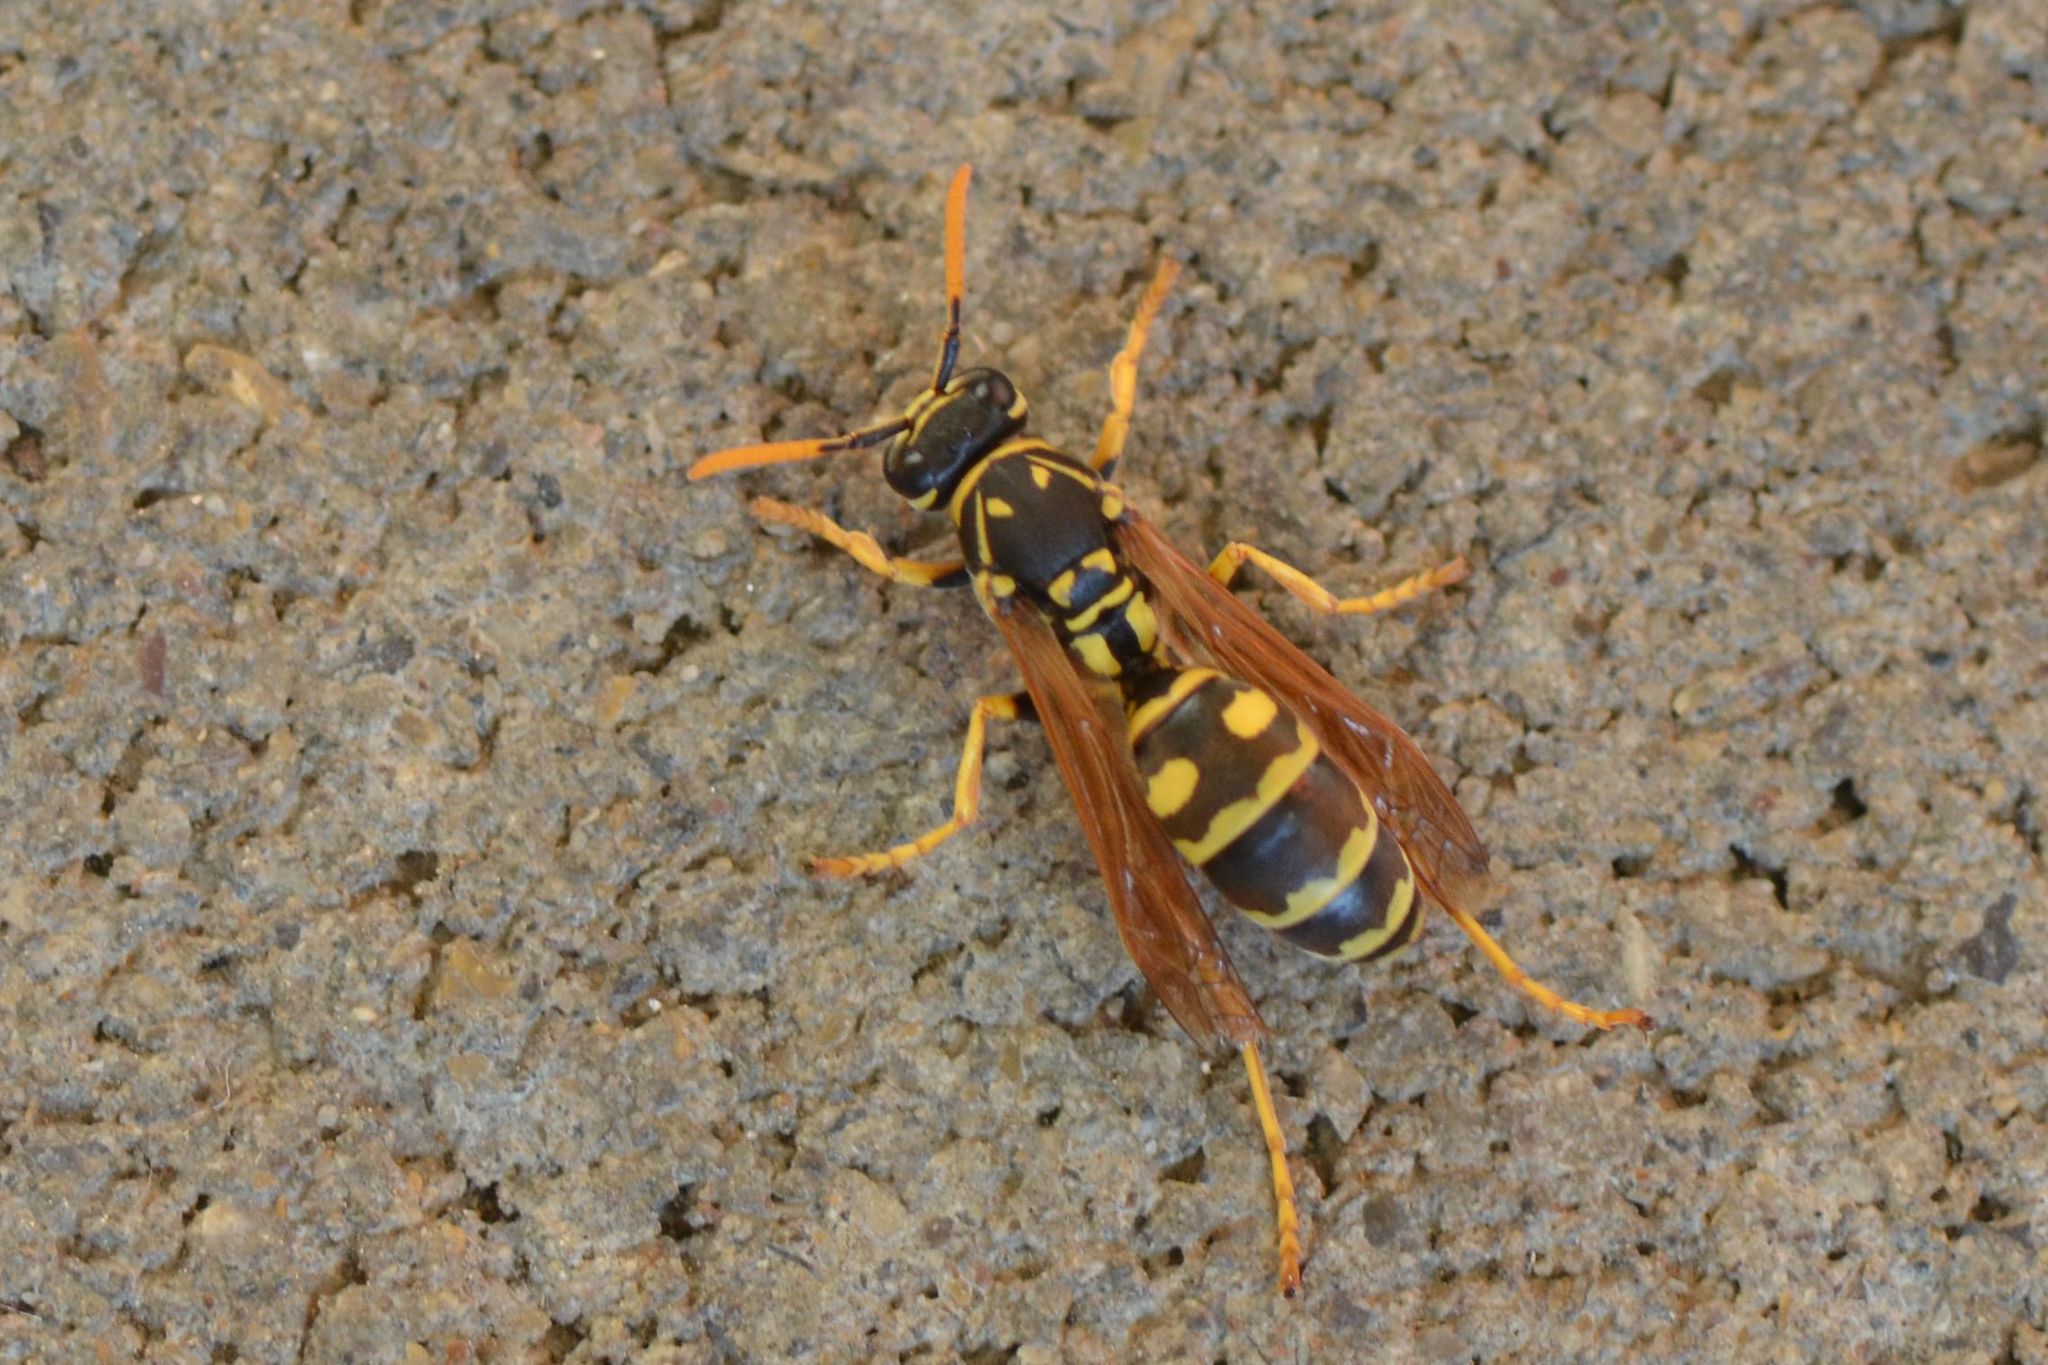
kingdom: Animalia
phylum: Arthropoda
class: Insecta
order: Hymenoptera
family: Eumenidae
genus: Polistes
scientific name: Polistes dominula
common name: Paper wasp
